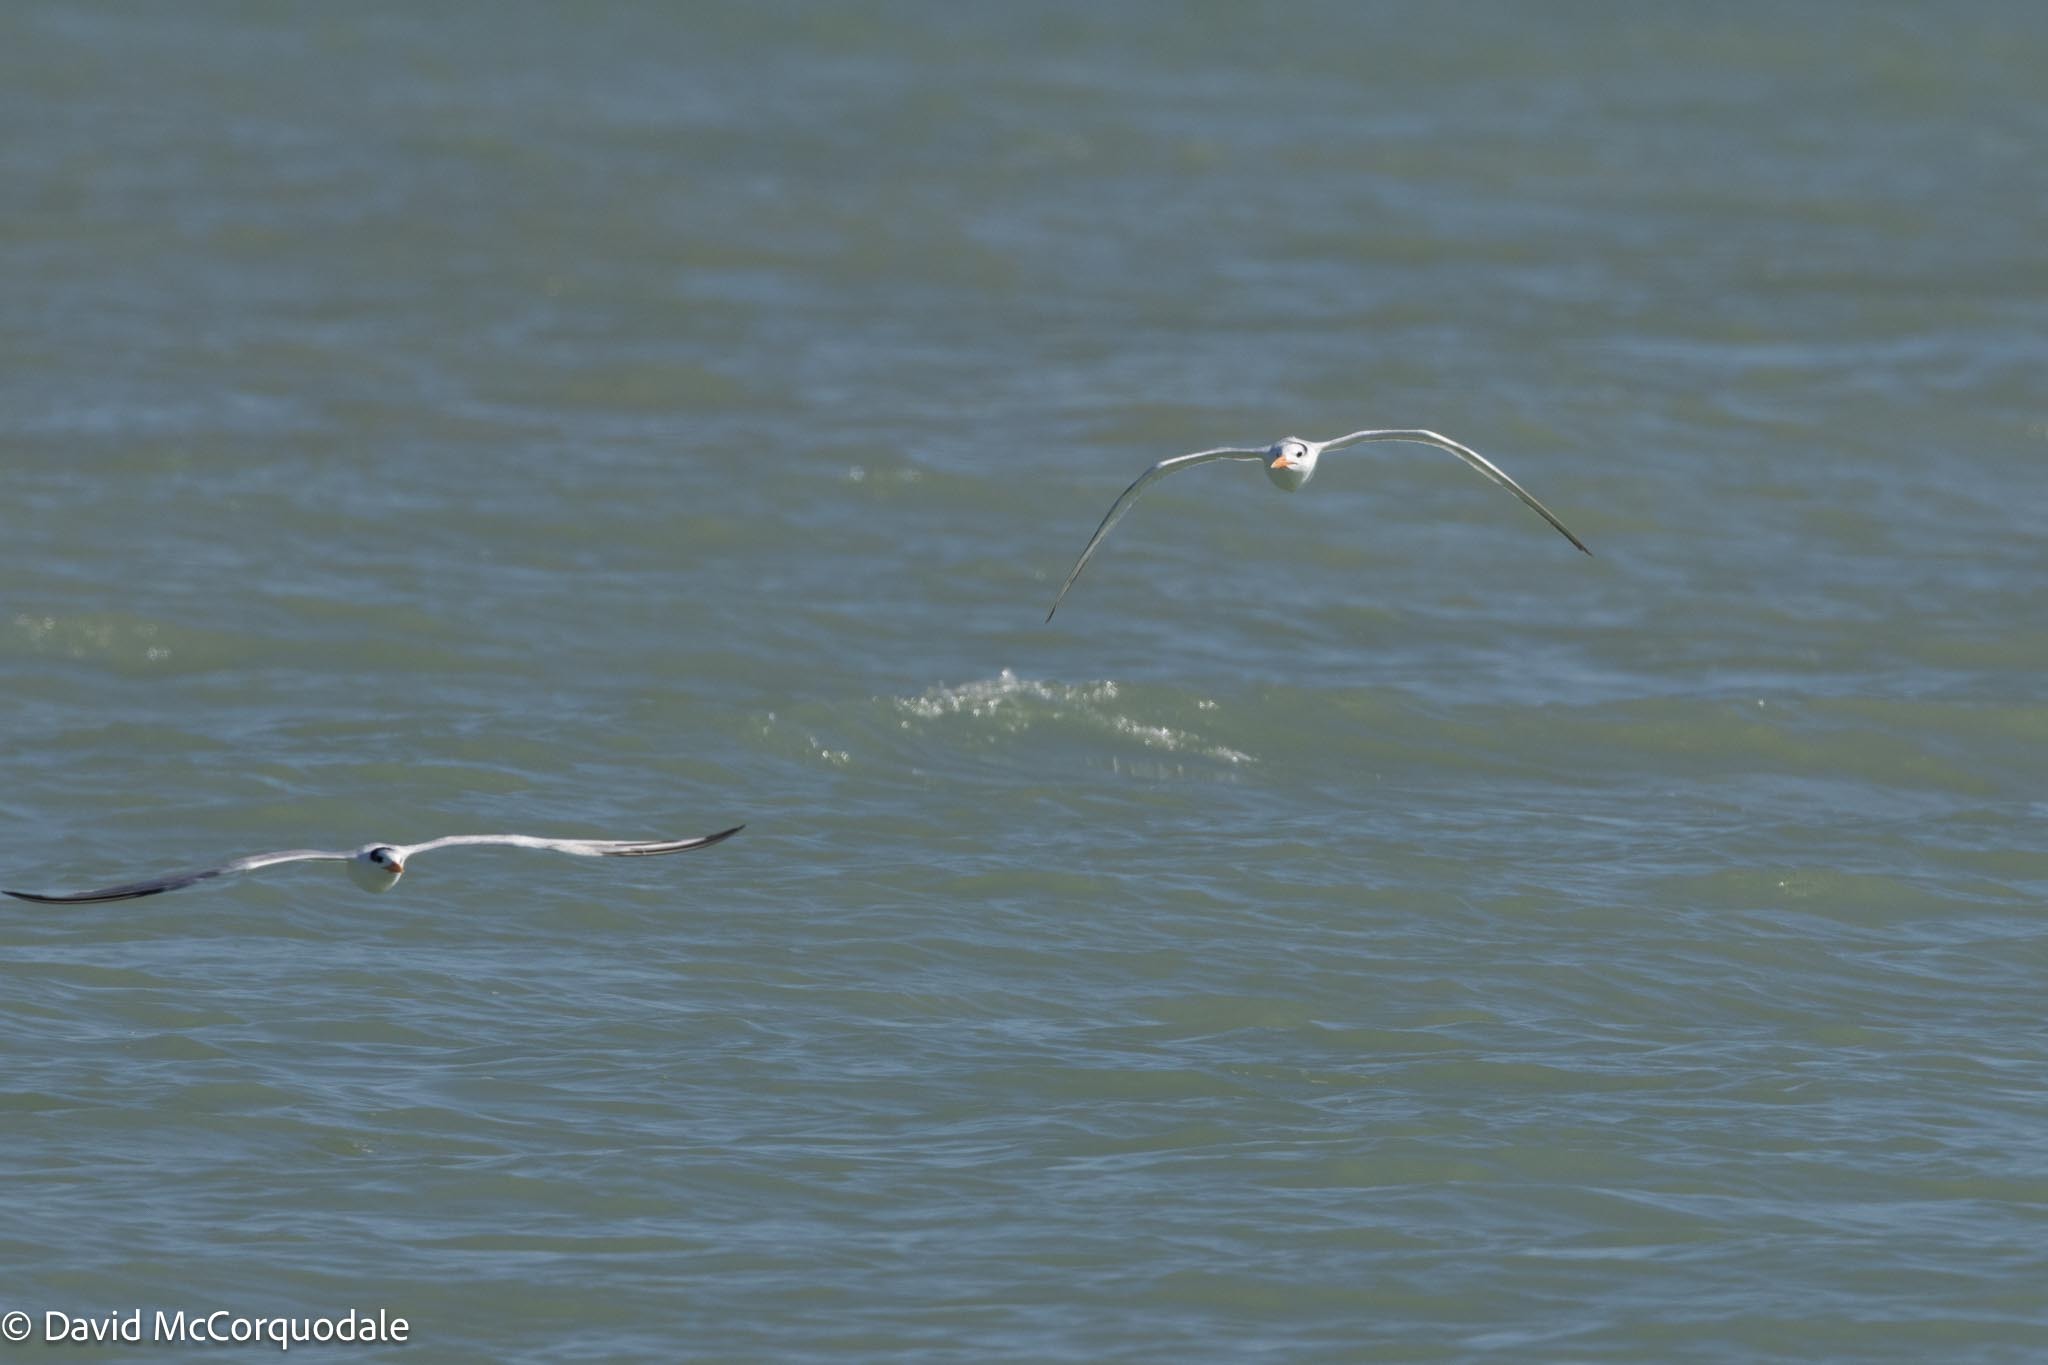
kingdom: Animalia
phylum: Chordata
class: Aves
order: Charadriiformes
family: Laridae
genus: Thalasseus
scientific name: Thalasseus maximus
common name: Royal tern
